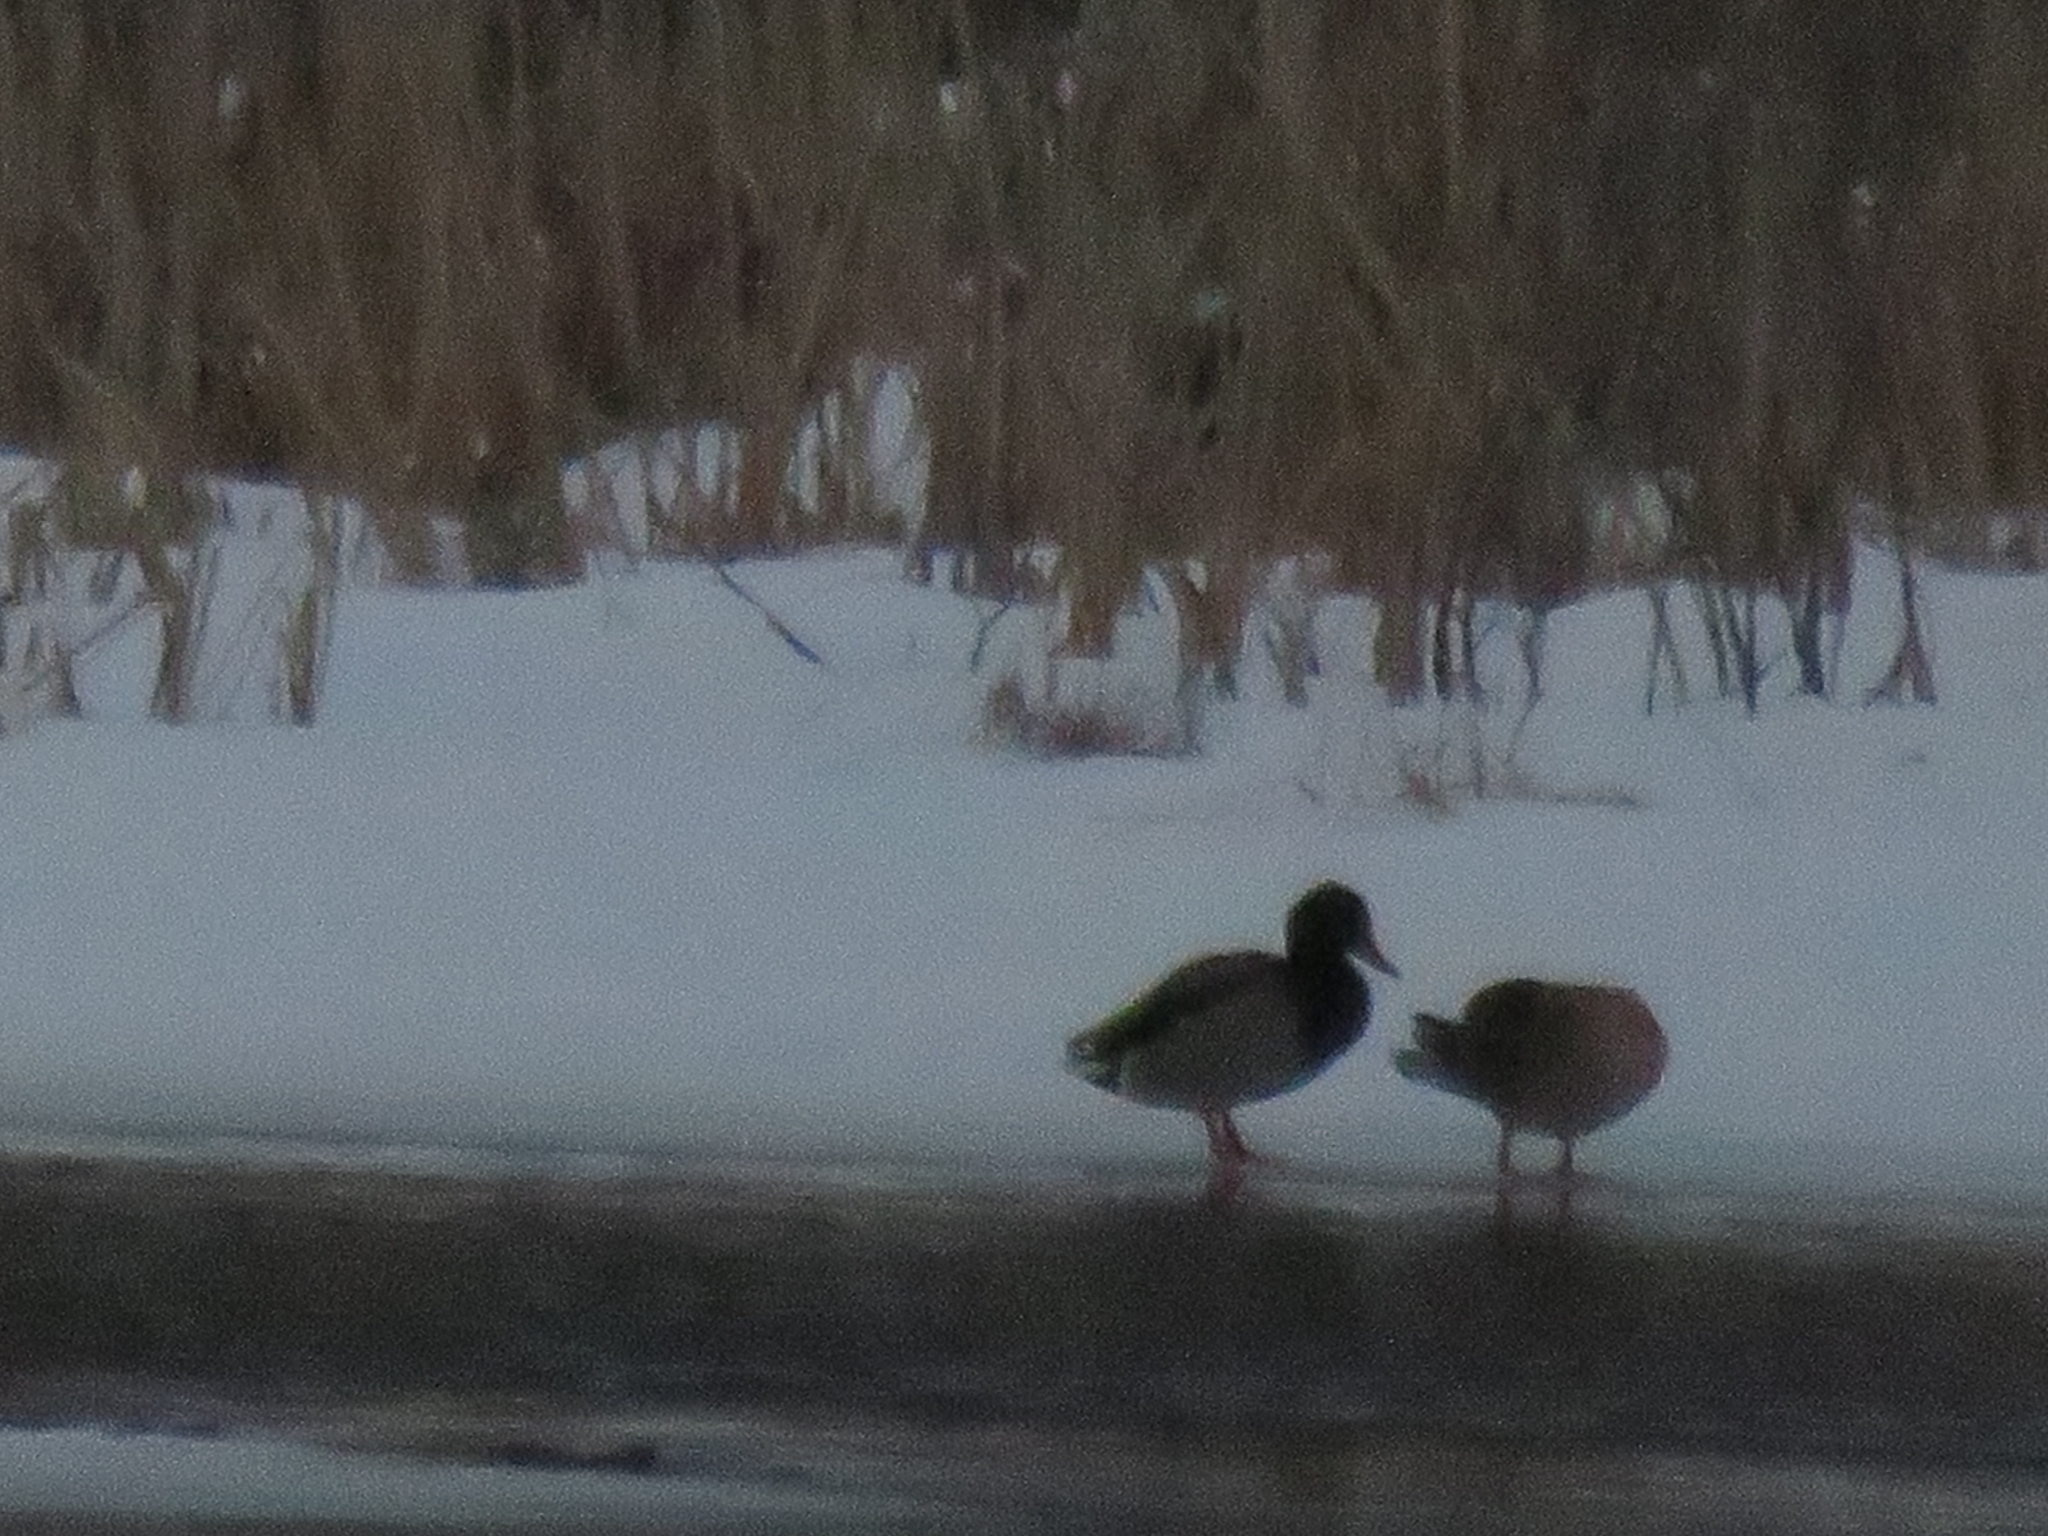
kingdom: Animalia
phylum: Chordata
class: Aves
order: Anseriformes
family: Anatidae
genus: Anas
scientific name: Anas platyrhynchos
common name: Mallard
